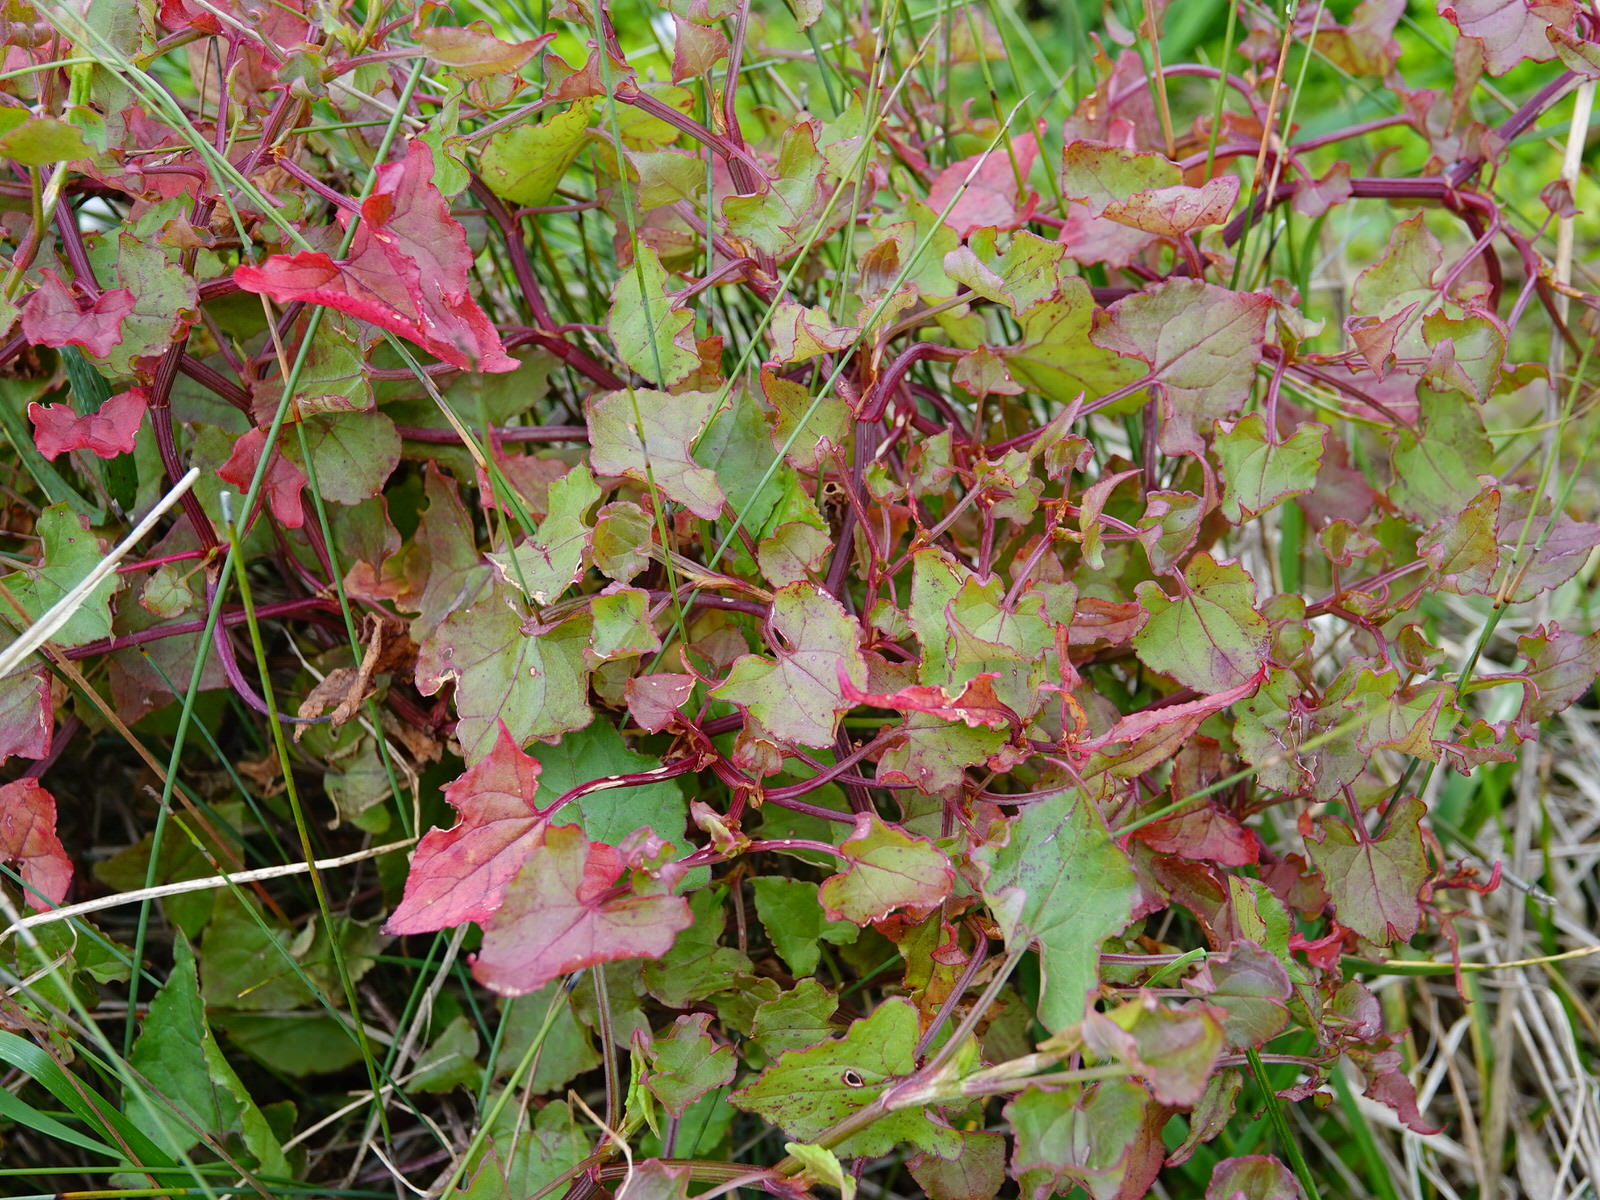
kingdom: Plantae
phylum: Tracheophyta
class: Magnoliopsida
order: Caryophyllales
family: Polygonaceae
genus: Rumex
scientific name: Rumex sagittatus
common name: Climbing dock
